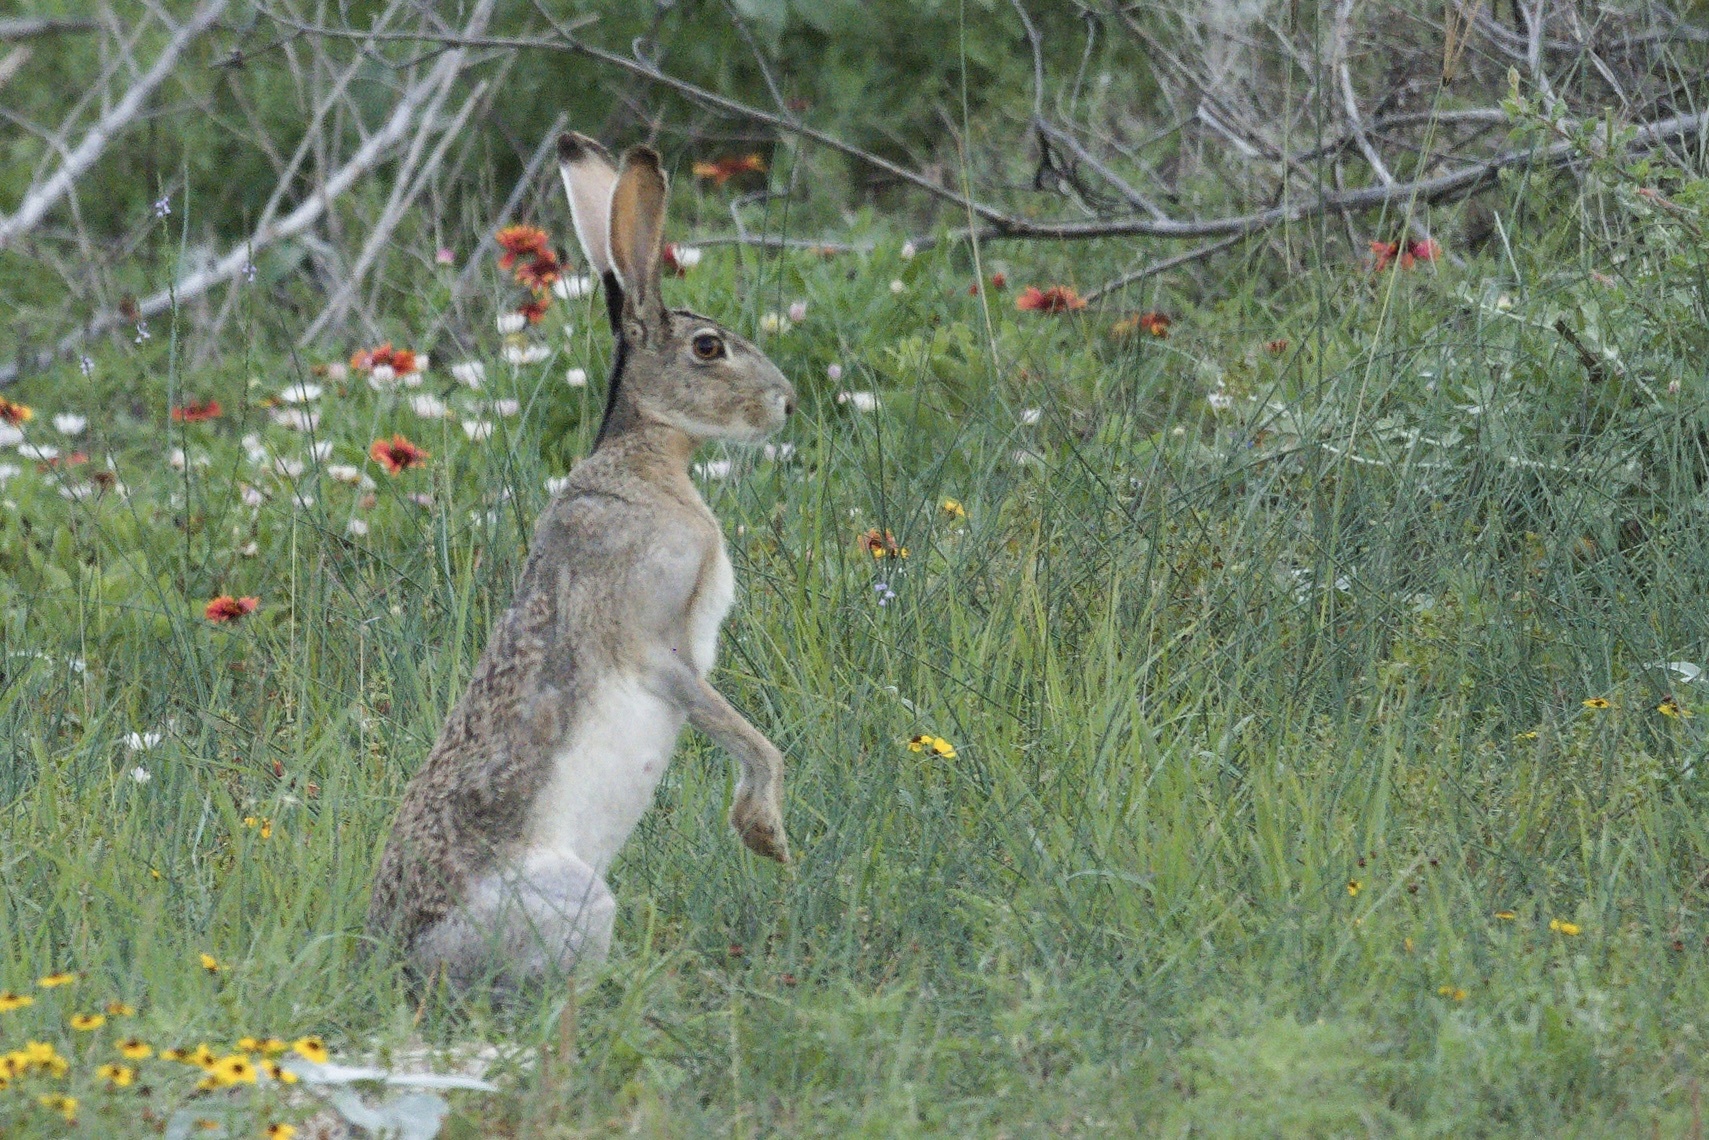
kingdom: Animalia
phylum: Chordata
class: Mammalia
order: Lagomorpha
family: Leporidae
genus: Lepus
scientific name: Lepus californicus
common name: Black-tailed jackrabbit
